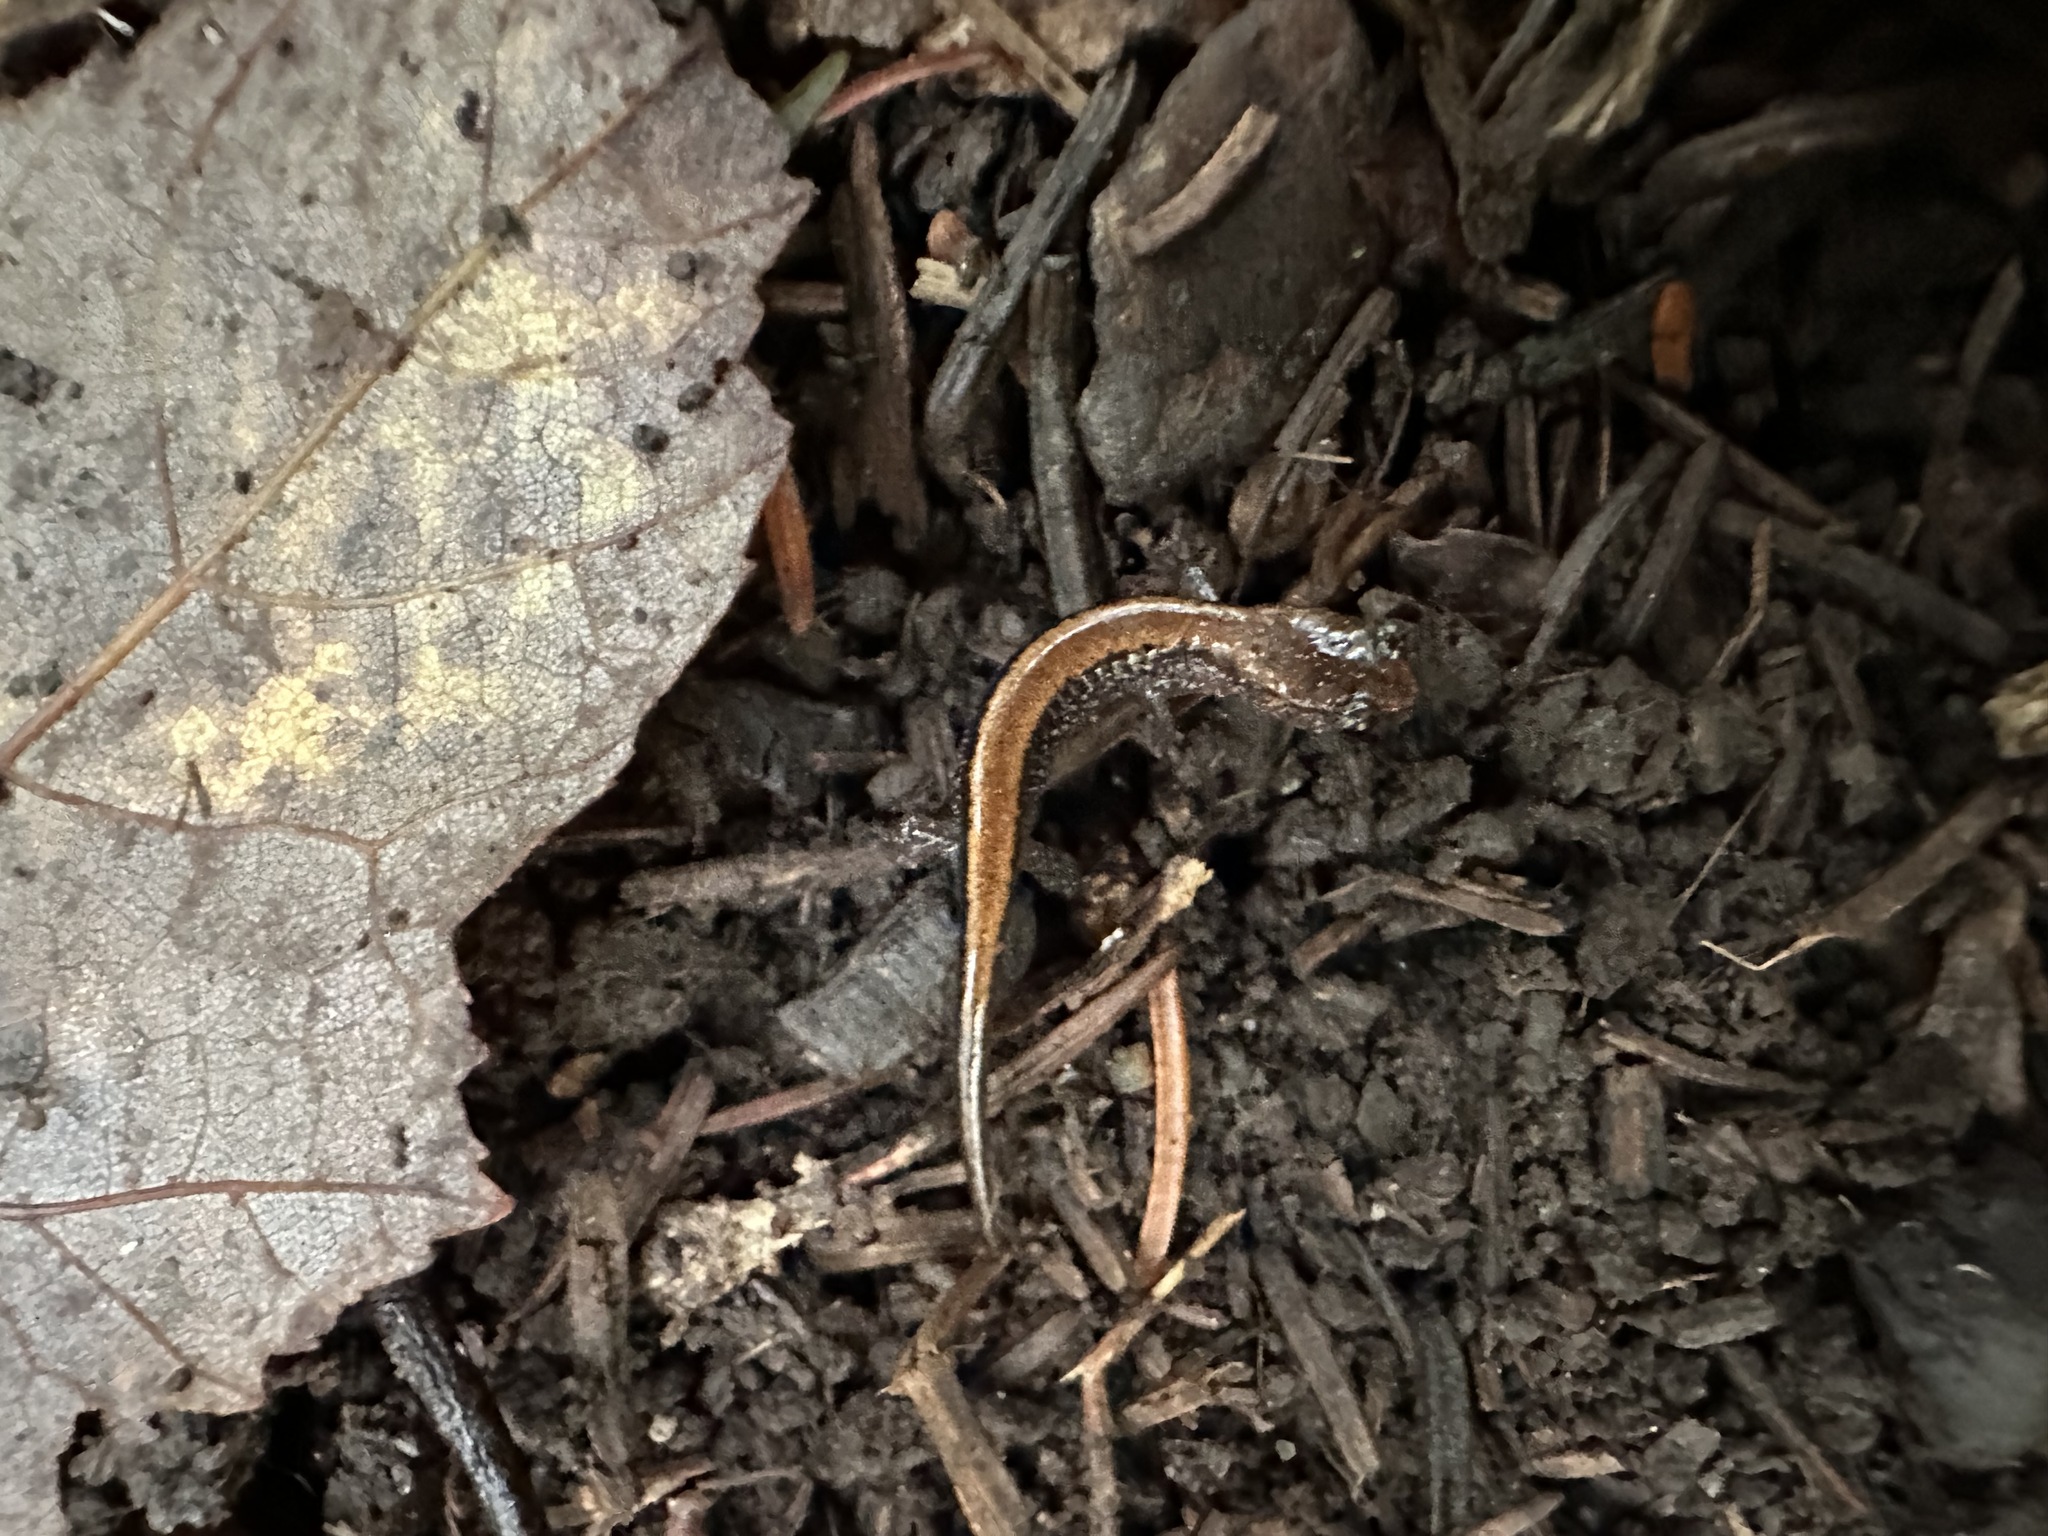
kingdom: Animalia
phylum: Chordata
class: Amphibia
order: Caudata
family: Plethodontidae
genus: Plethodon
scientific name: Plethodon cinereus
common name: Redback salamander
